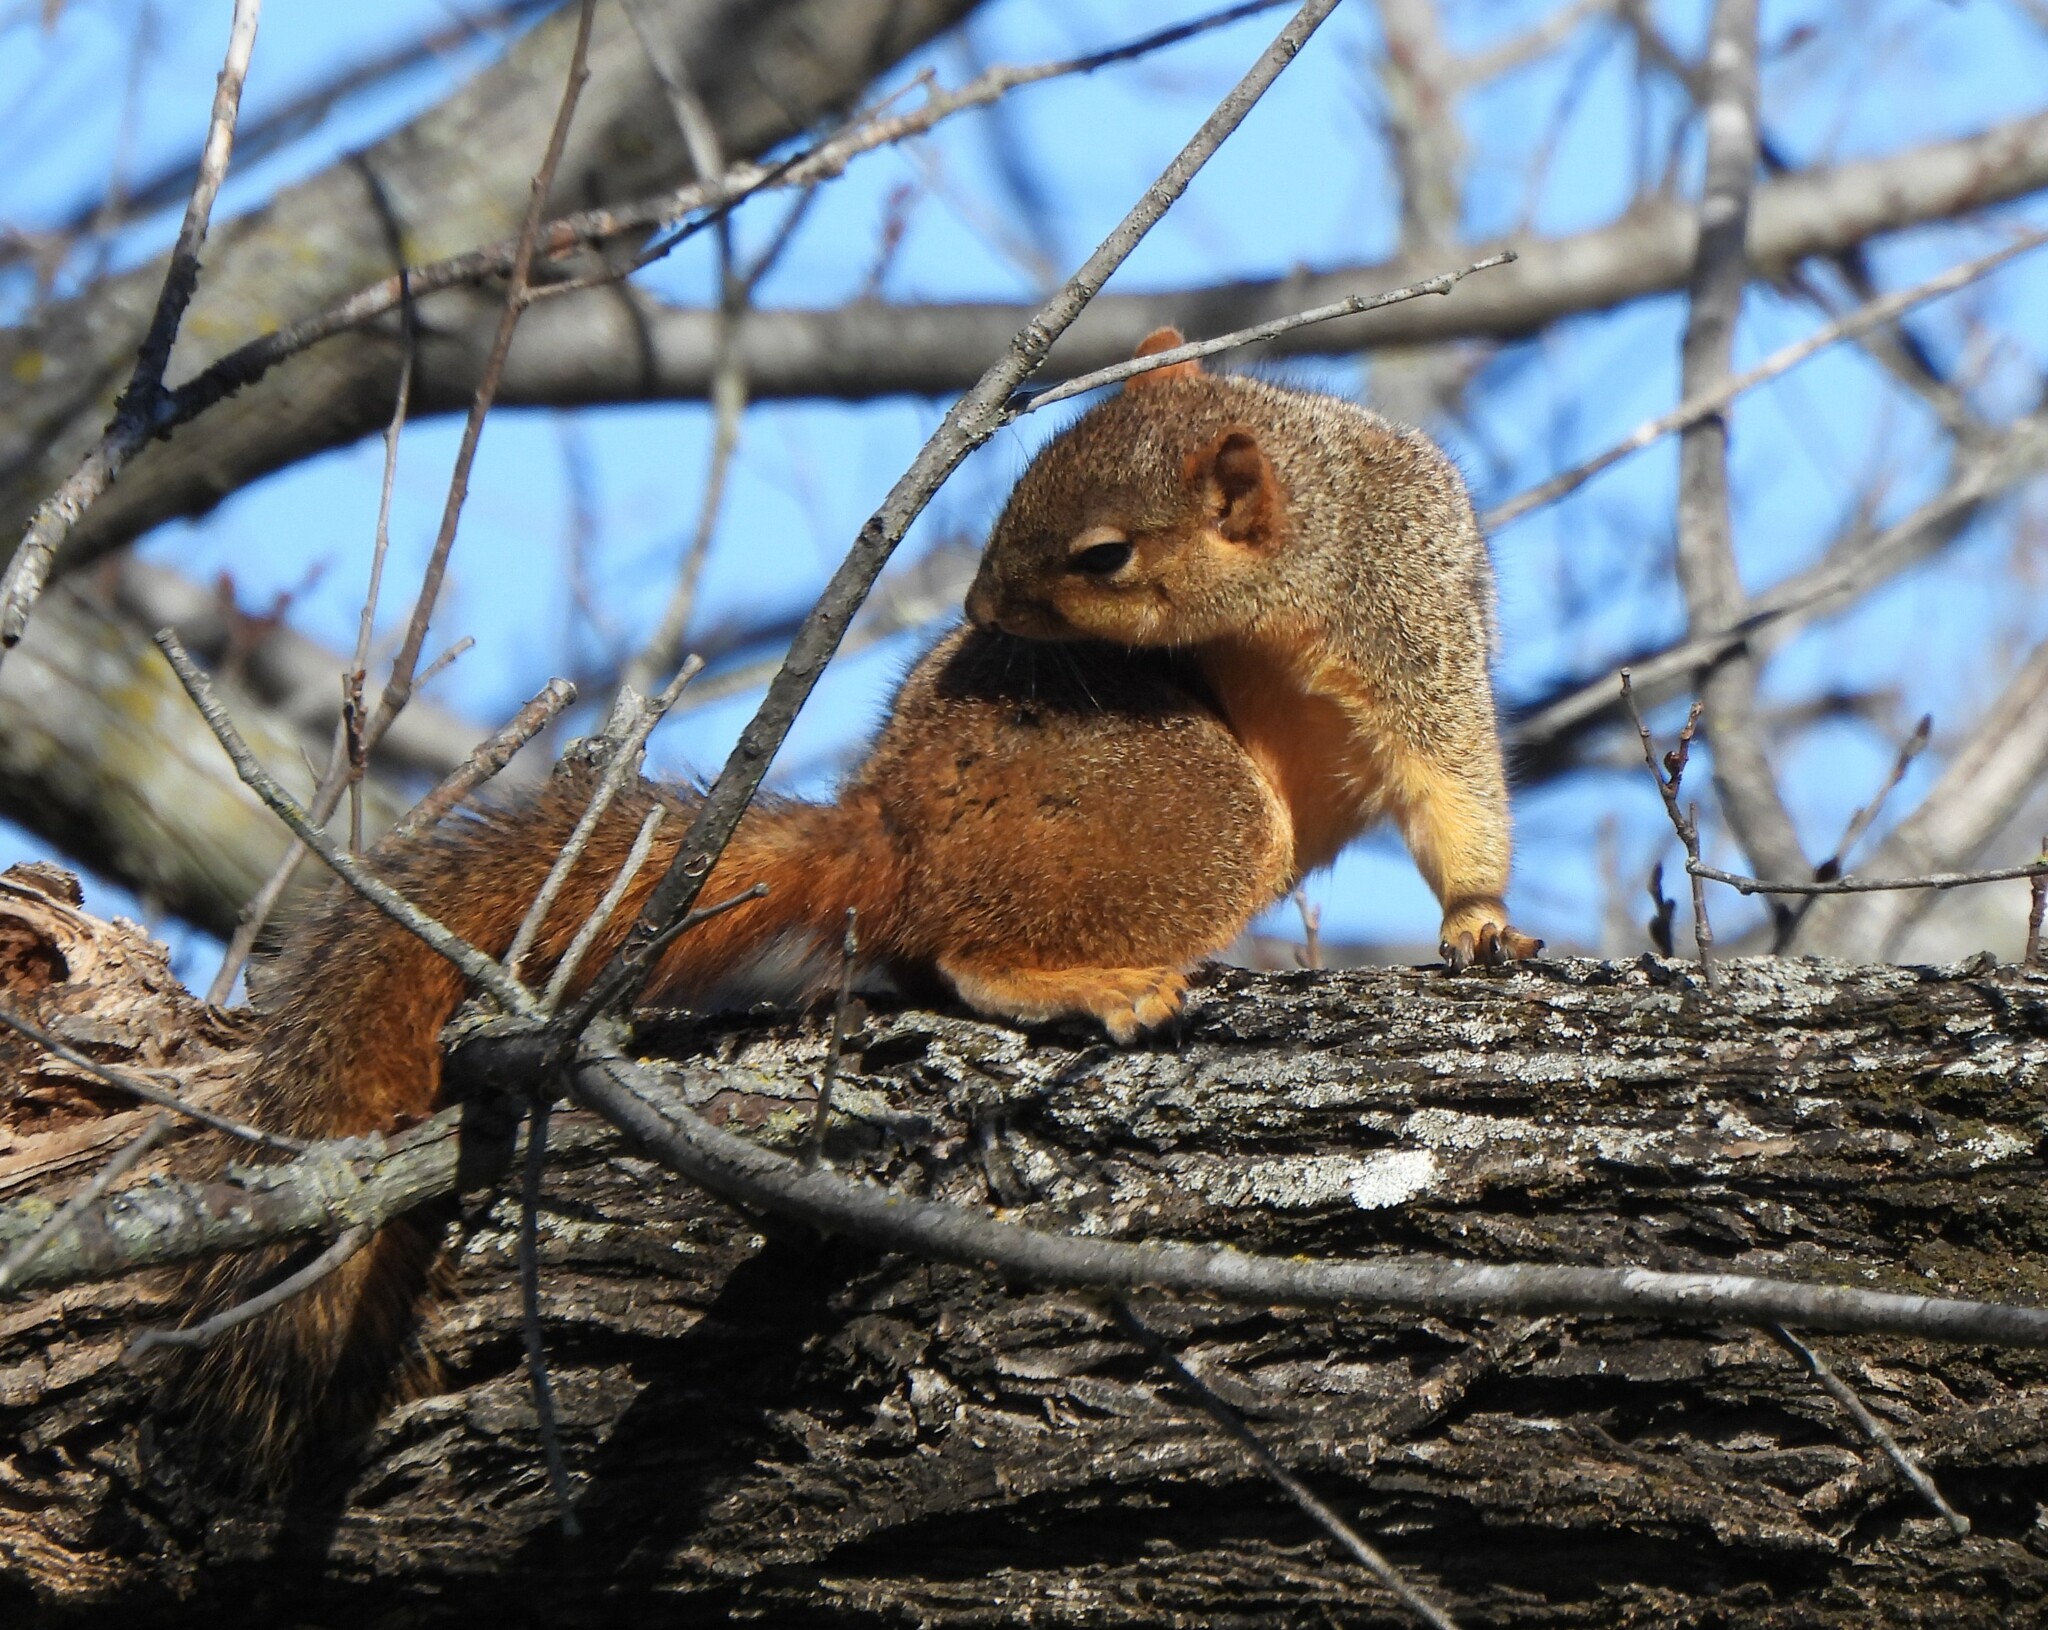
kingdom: Animalia
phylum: Chordata
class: Mammalia
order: Rodentia
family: Sciuridae
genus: Sciurus
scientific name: Sciurus niger
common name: Fox squirrel
